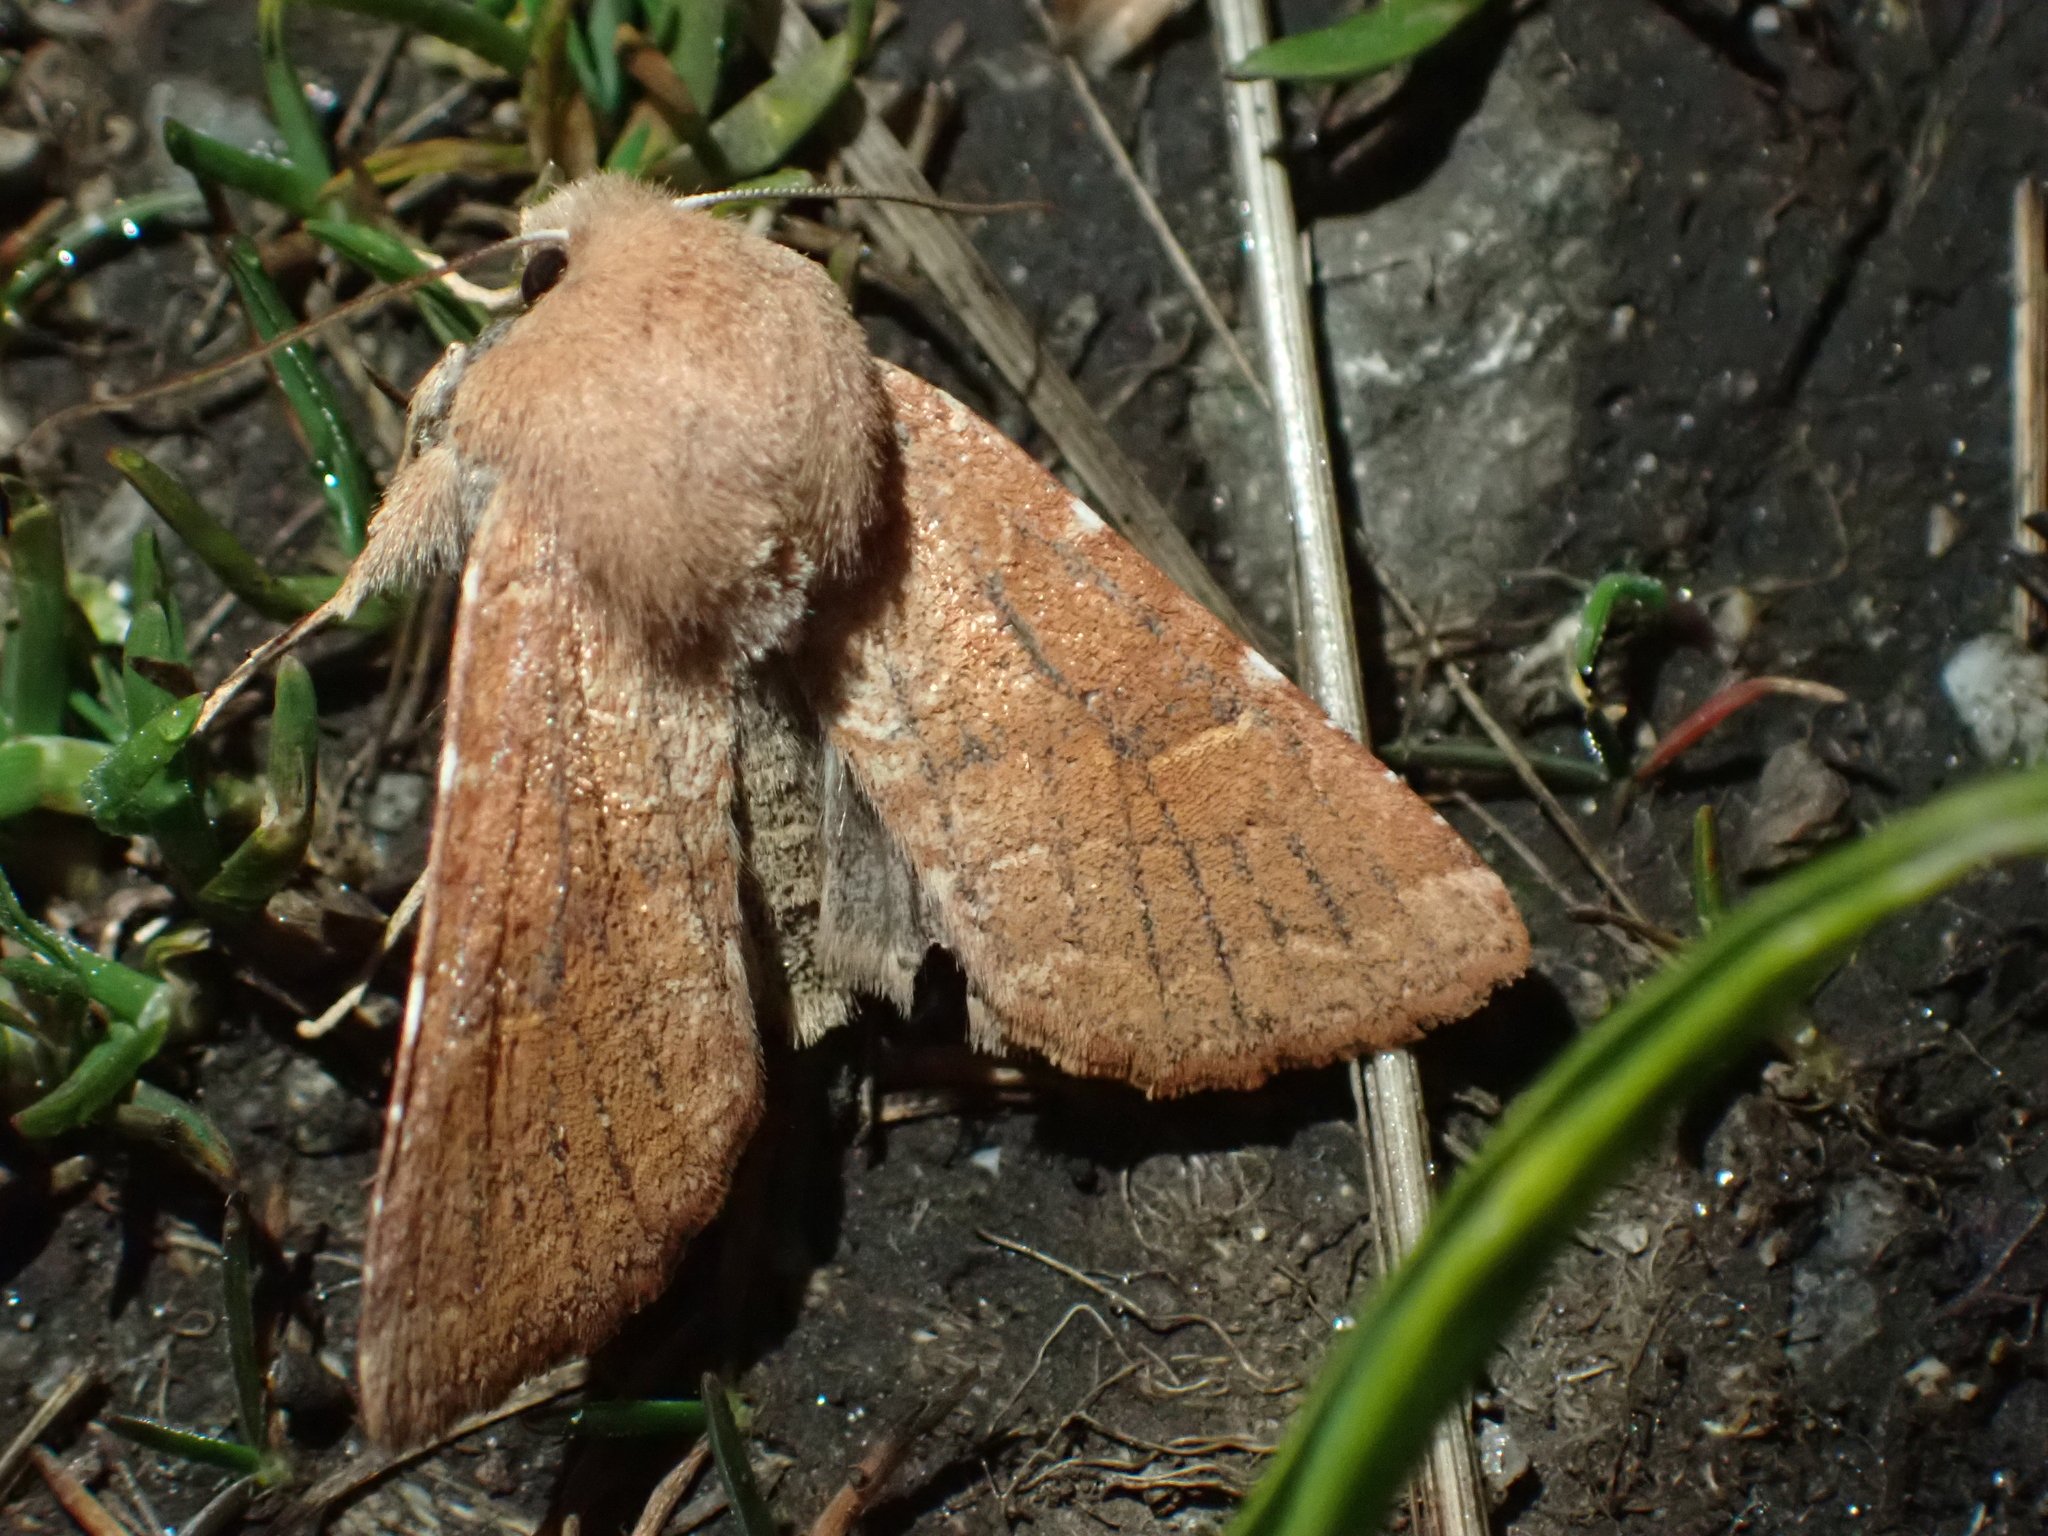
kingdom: Animalia
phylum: Arthropoda
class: Insecta
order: Lepidoptera
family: Noctuidae
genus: Orthosia
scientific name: Orthosia ferrigera
